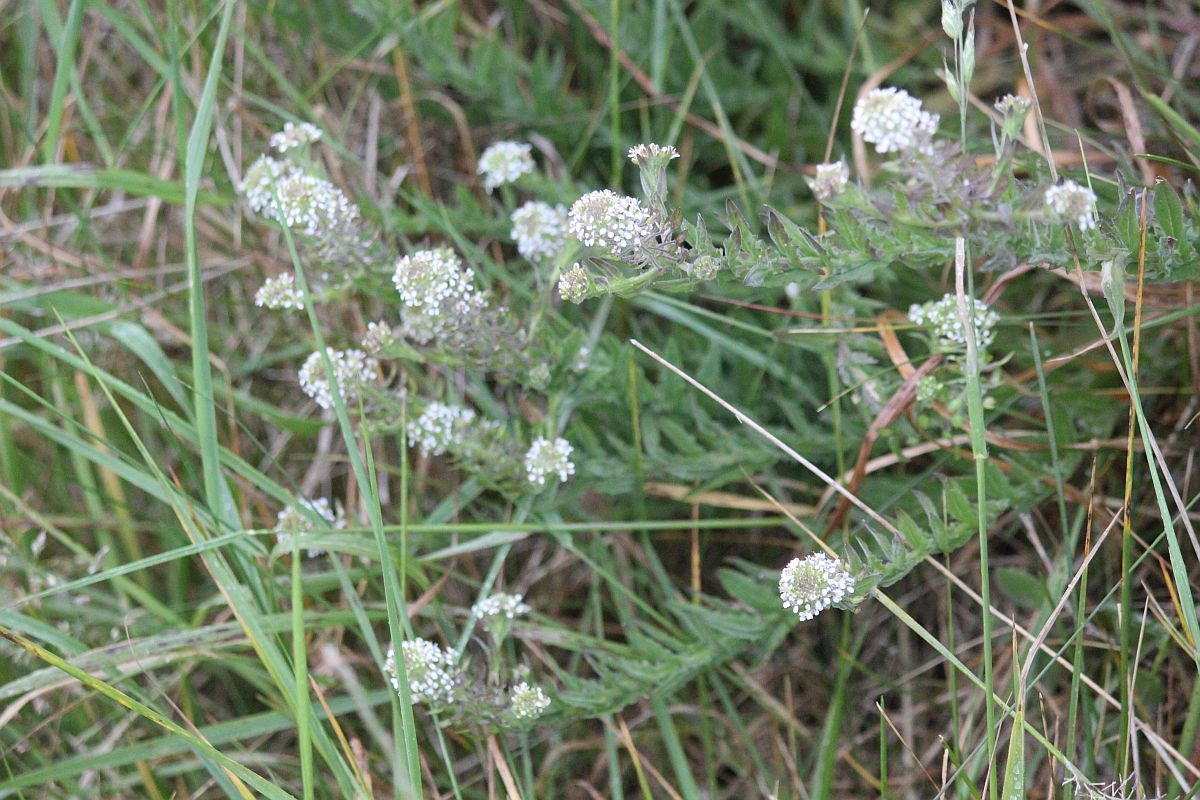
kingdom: Plantae
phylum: Tracheophyta
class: Magnoliopsida
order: Brassicales
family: Brassicaceae
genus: Lepidium
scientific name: Lepidium heterophyllum
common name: Smith's pepperwort
